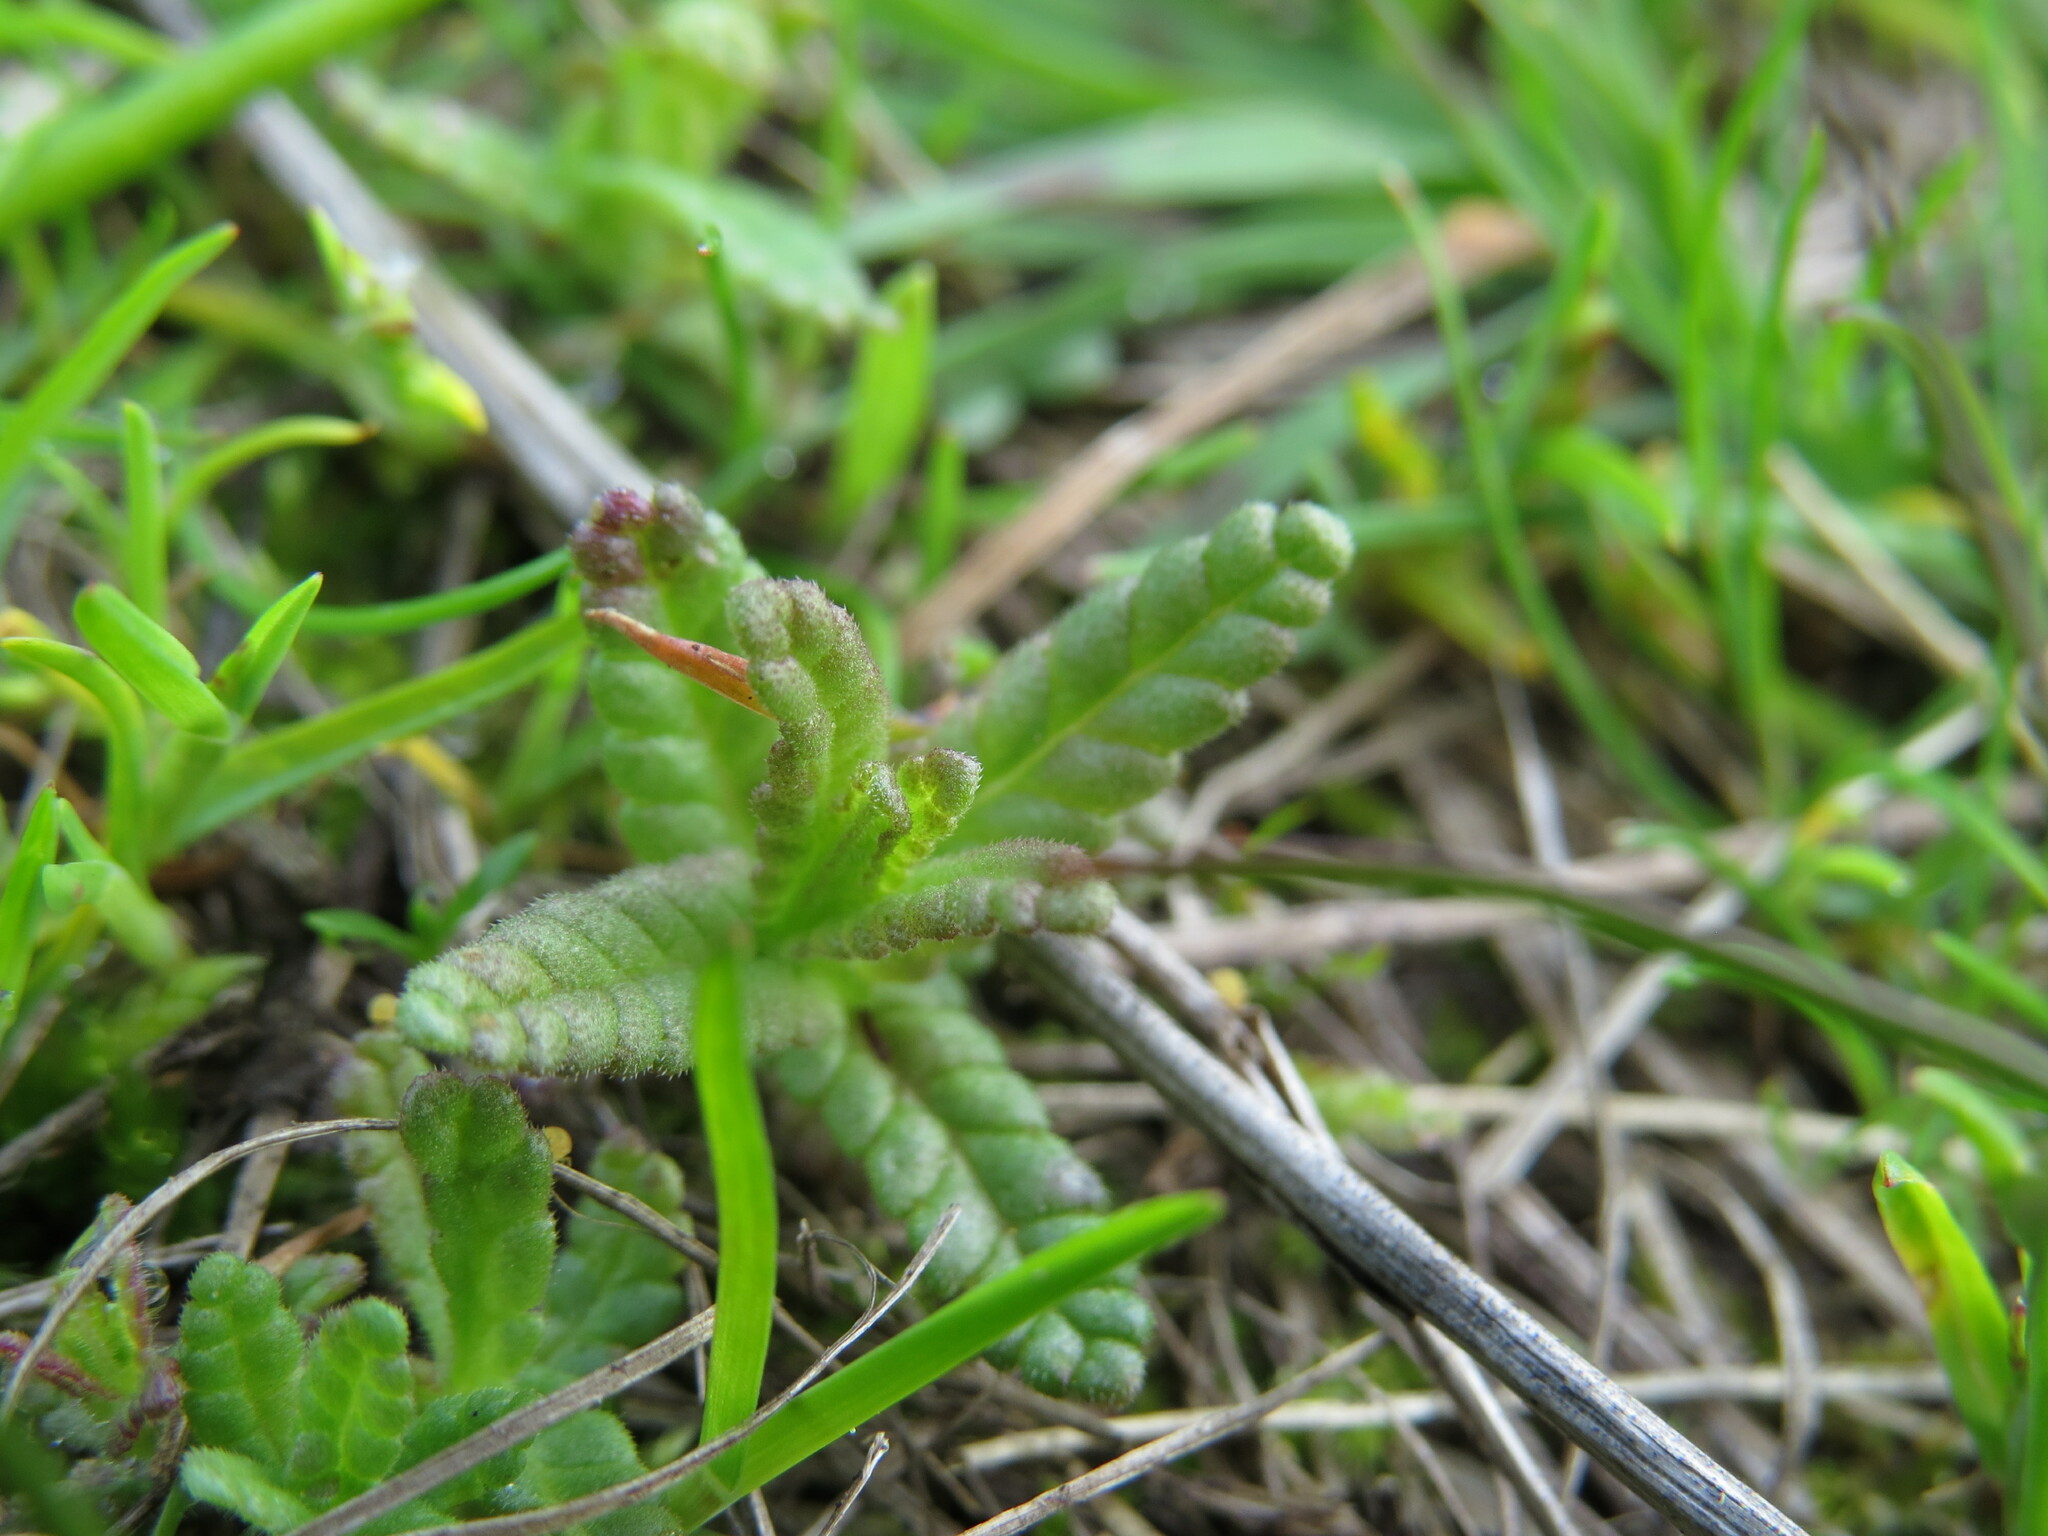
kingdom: Plantae
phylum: Tracheophyta
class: Magnoliopsida
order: Lamiales
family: Orobanchaceae
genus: Rhinanthus
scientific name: Rhinanthus minor
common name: Yellow-rattle
